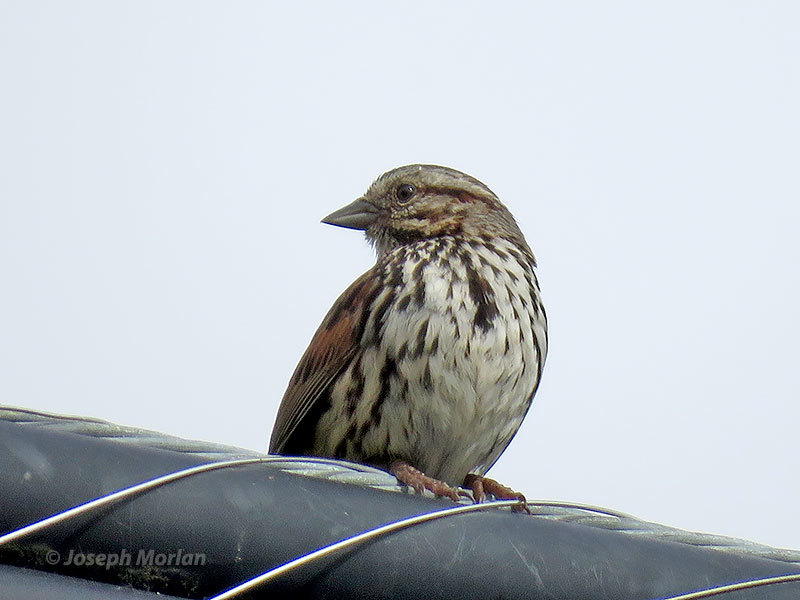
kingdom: Animalia
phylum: Chordata
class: Aves
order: Passeriformes
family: Passerellidae
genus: Melospiza
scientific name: Melospiza melodia
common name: Song sparrow
